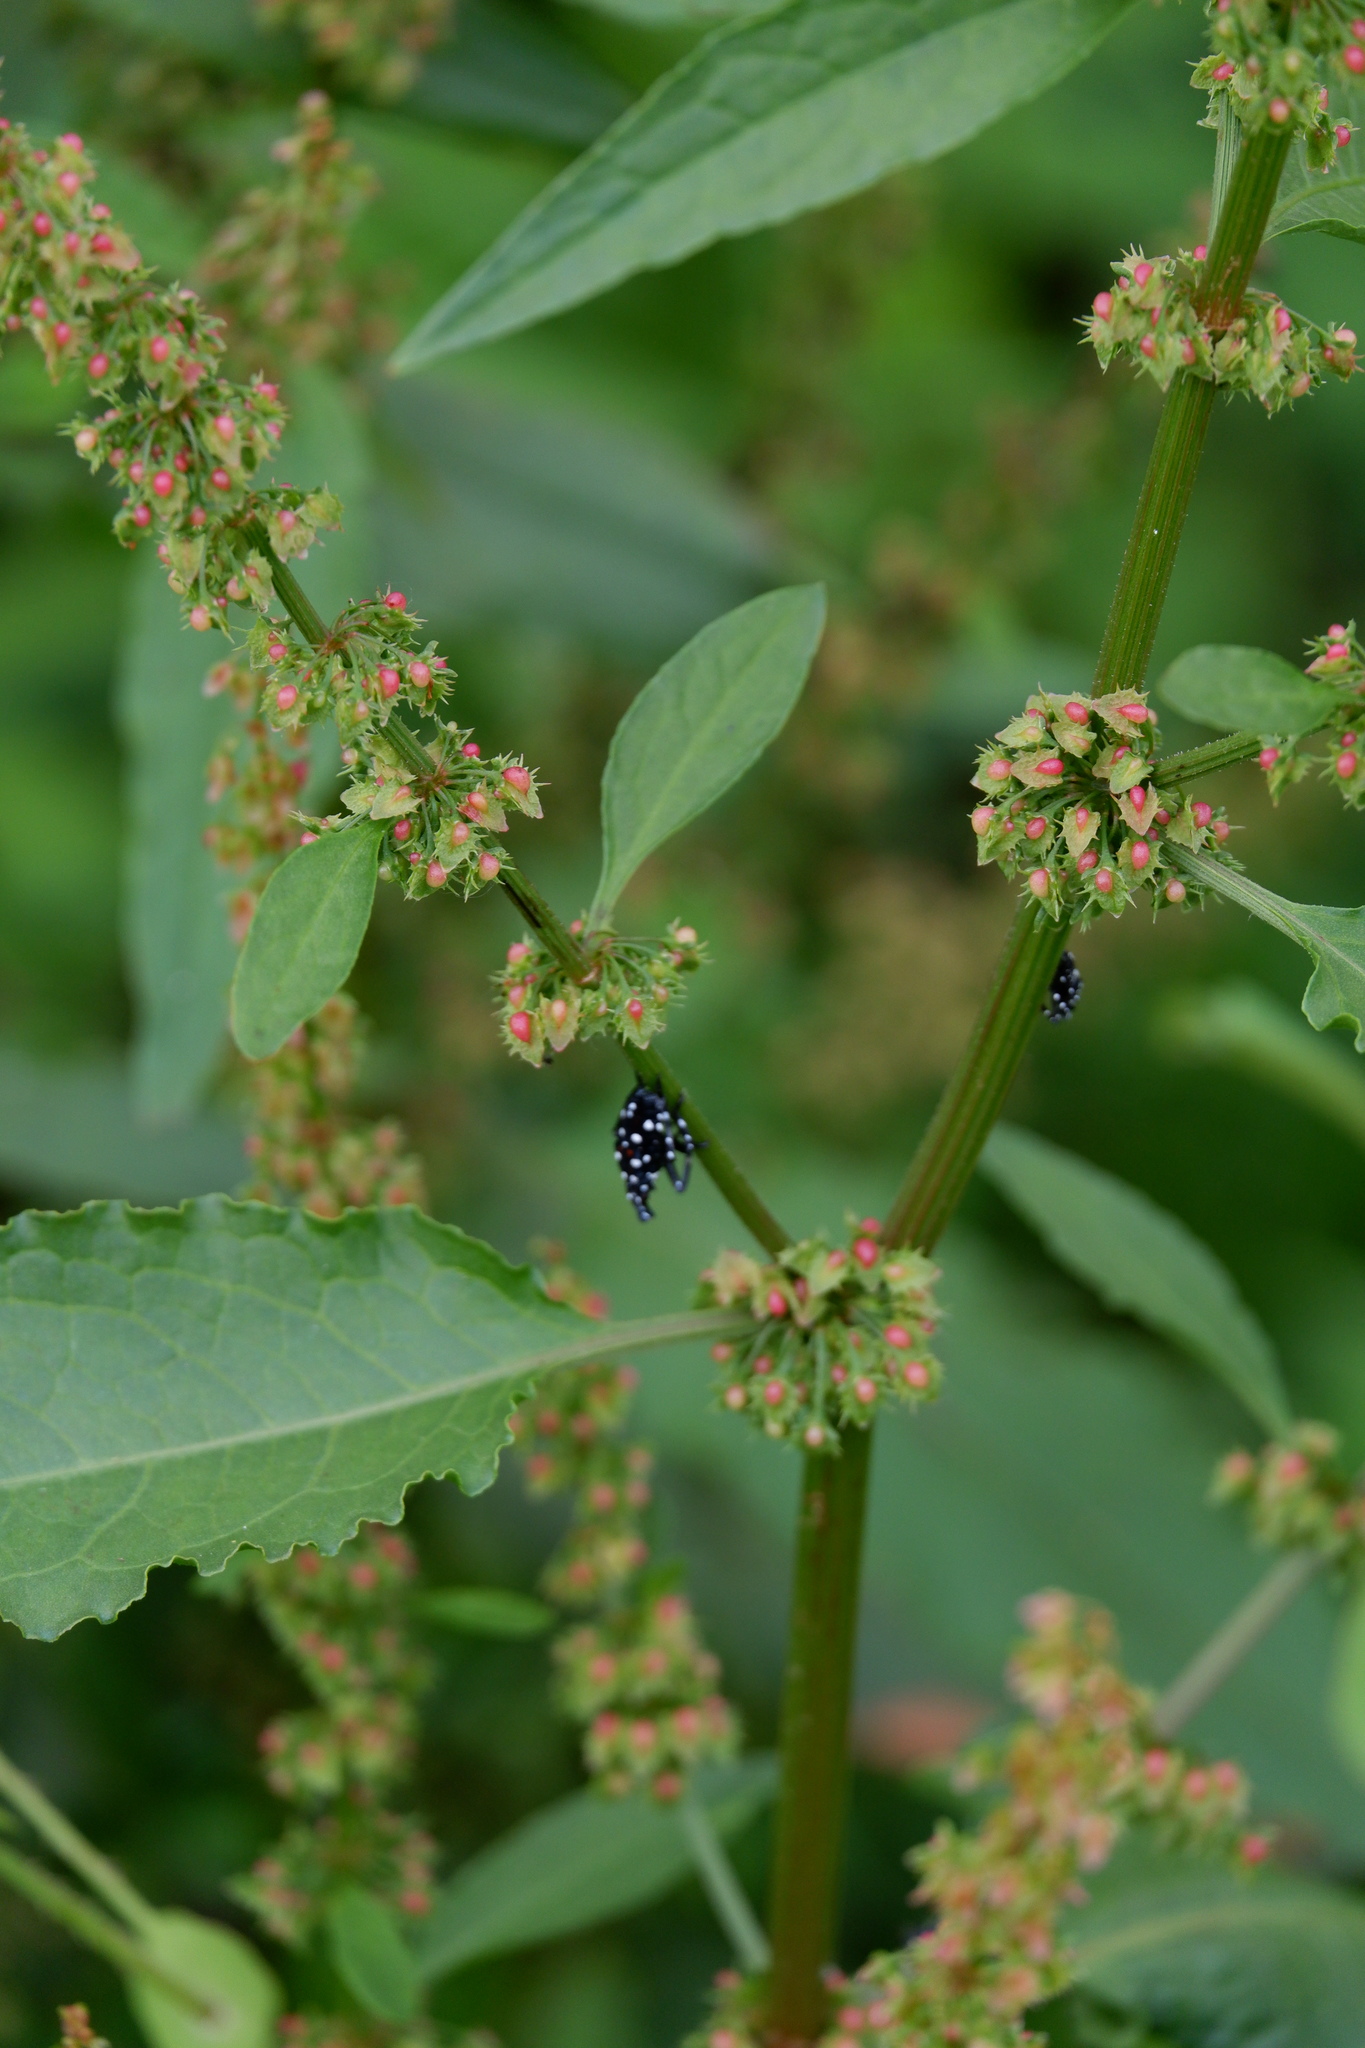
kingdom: Animalia
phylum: Arthropoda
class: Insecta
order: Hemiptera
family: Fulgoridae
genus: Lycorma
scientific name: Lycorma delicatula
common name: Spotted lanternfly
